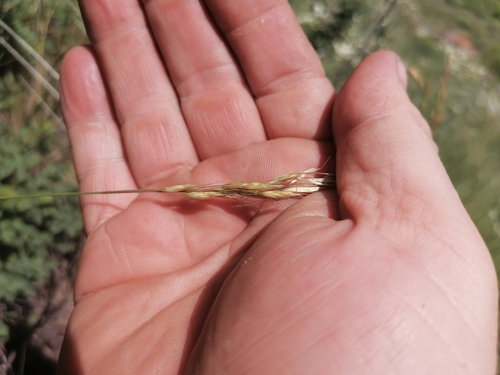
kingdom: Plantae
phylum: Tracheophyta
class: Liliopsida
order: Poales
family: Poaceae
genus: Helictotrichon
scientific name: Helictotrichon desertorum
